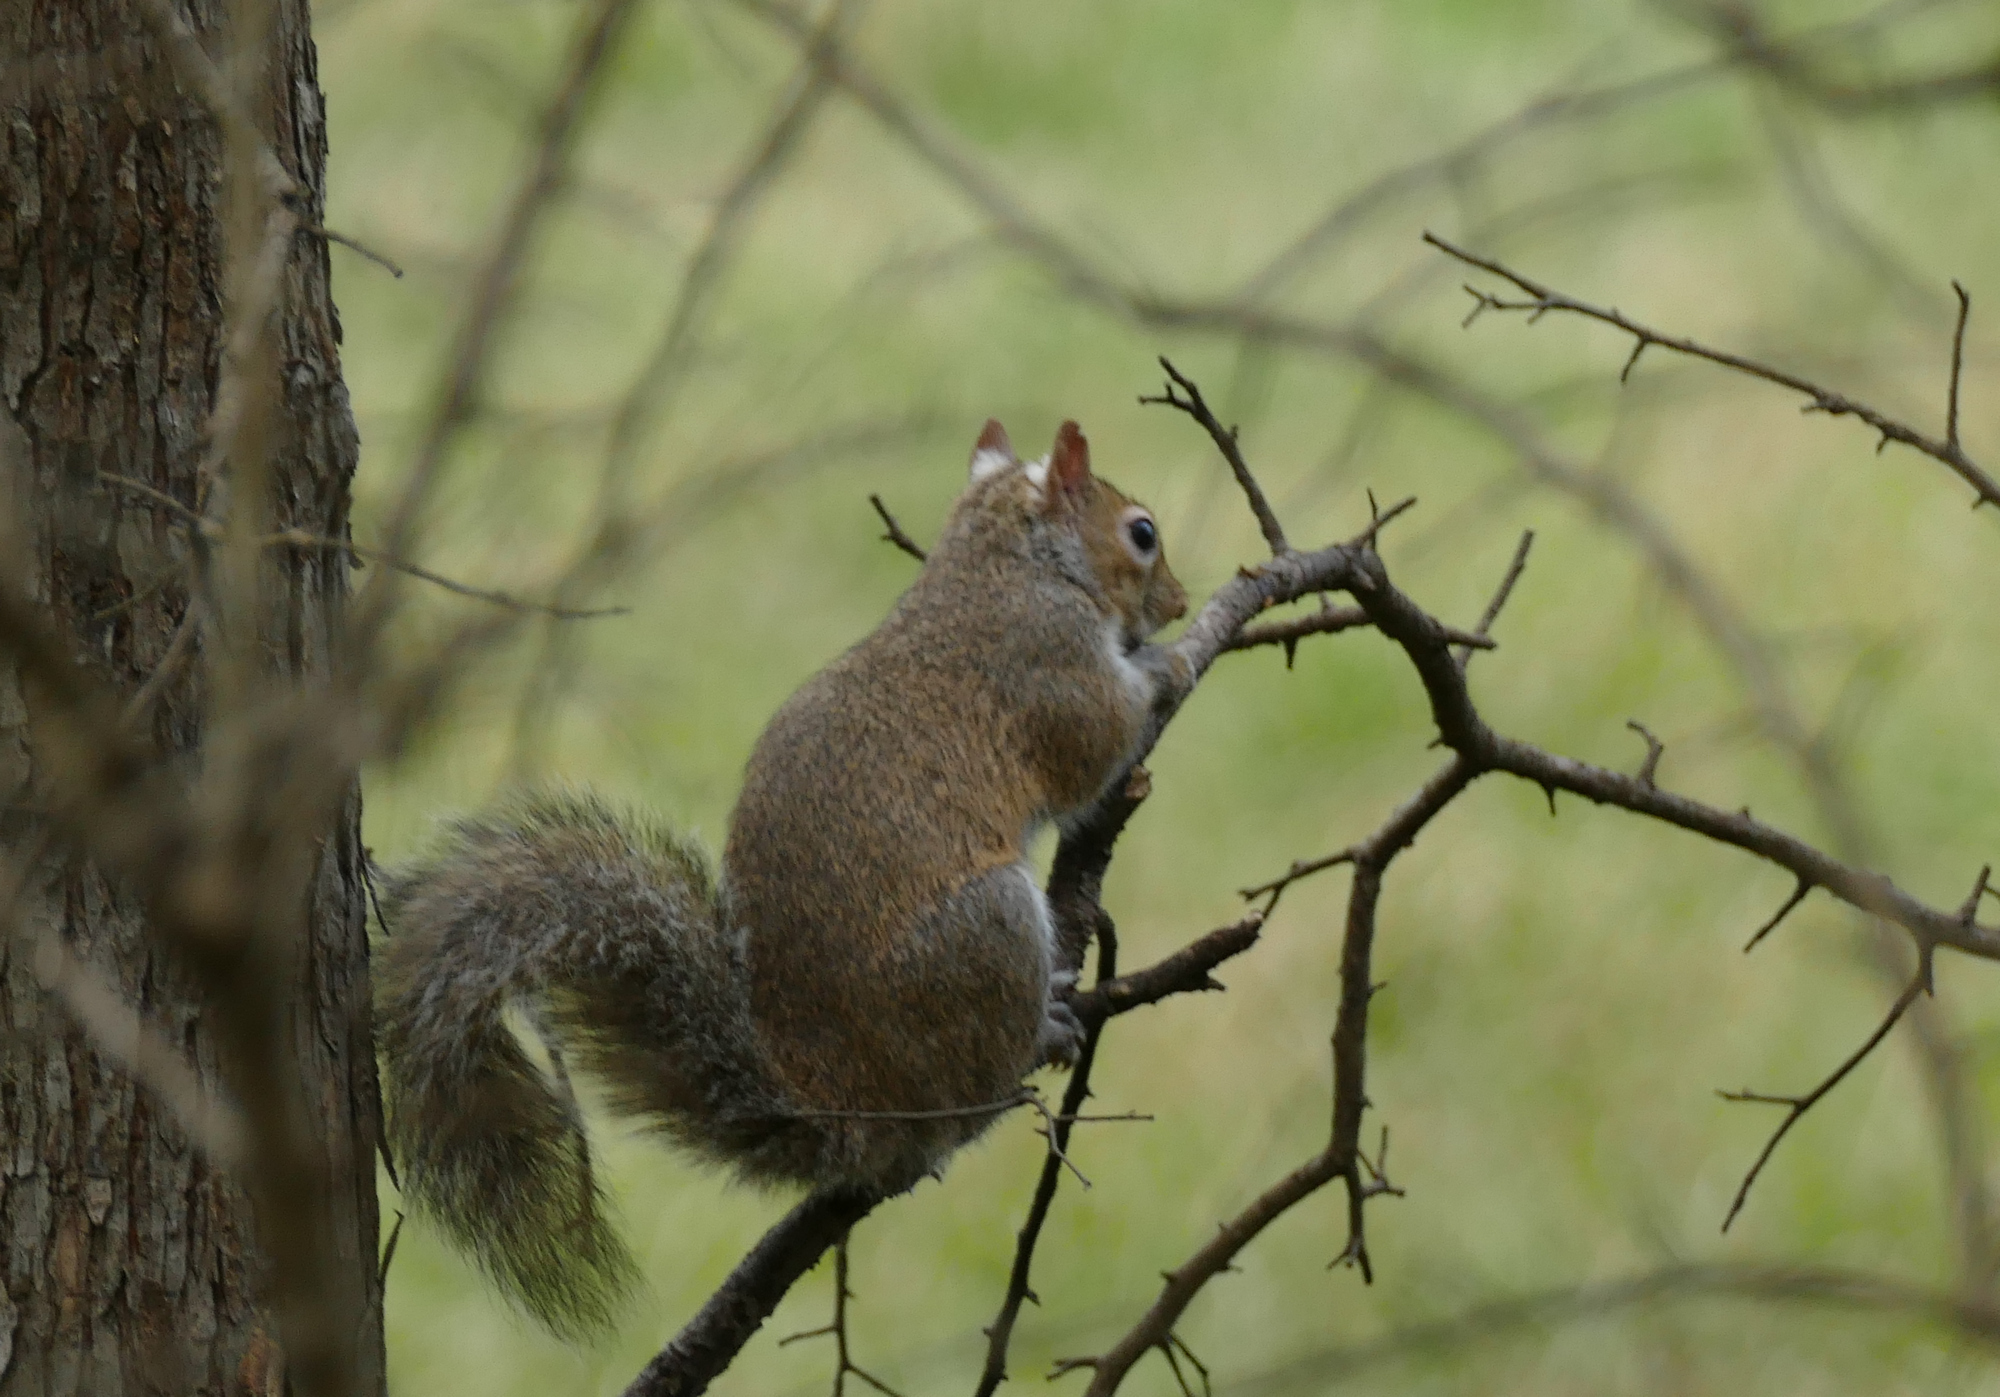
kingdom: Animalia
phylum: Chordata
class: Mammalia
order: Rodentia
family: Sciuridae
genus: Sciurus
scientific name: Sciurus carolinensis
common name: Eastern gray squirrel
